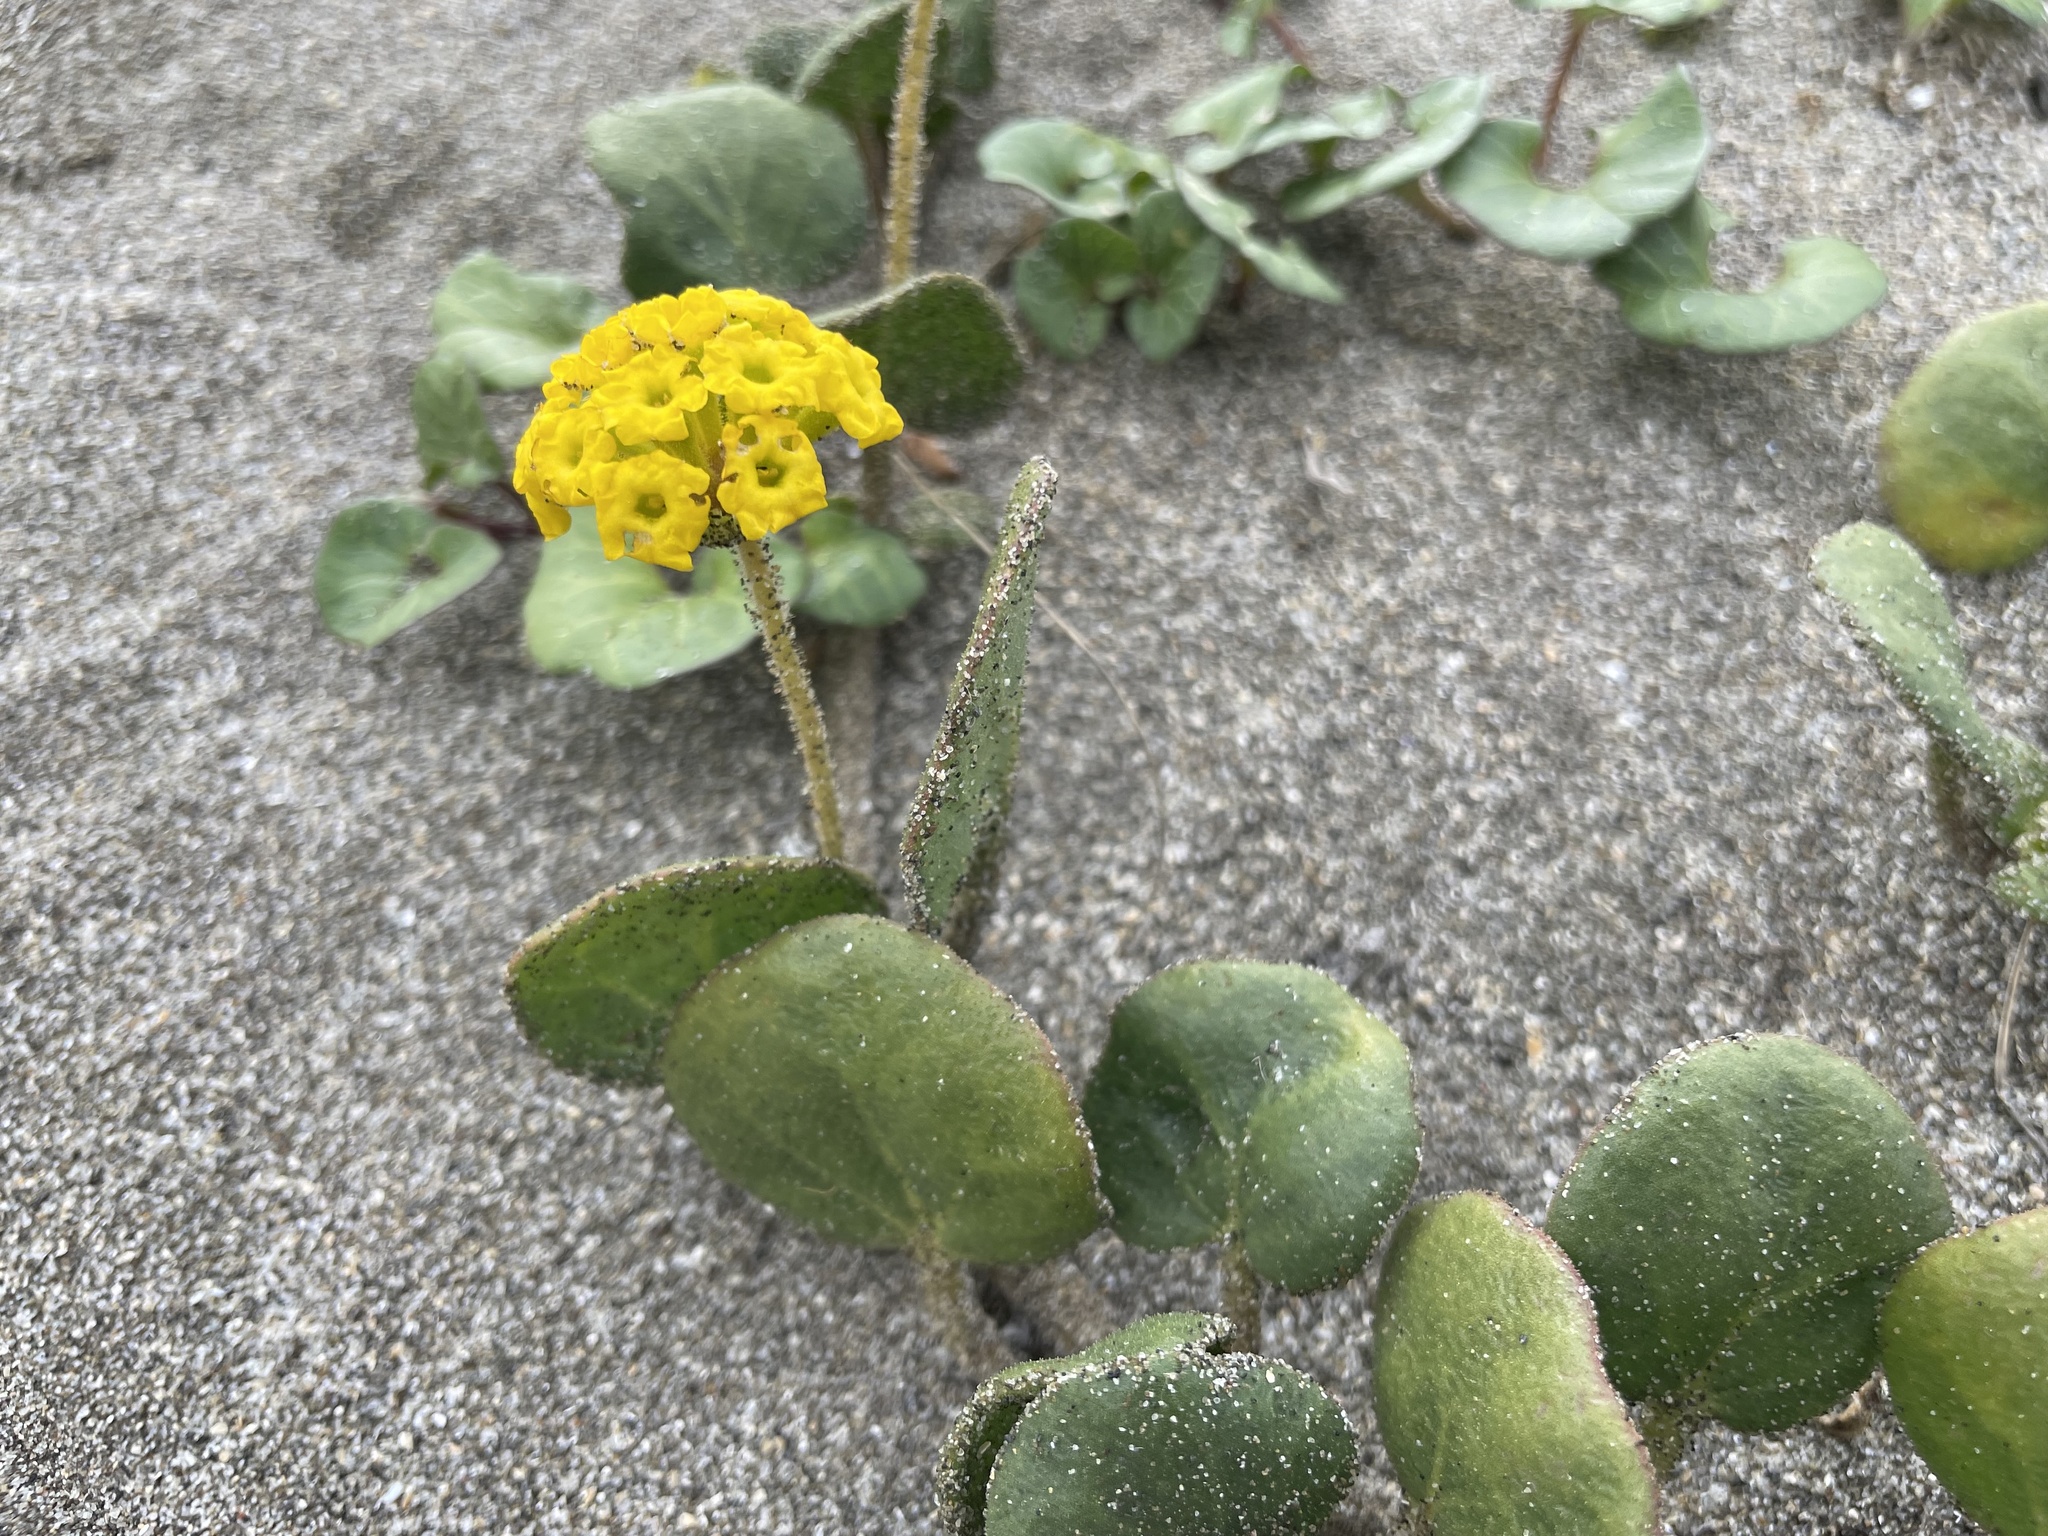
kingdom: Plantae
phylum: Tracheophyta
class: Magnoliopsida
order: Caryophyllales
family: Nyctaginaceae
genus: Abronia
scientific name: Abronia latifolia
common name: Yellow sand-verbena
